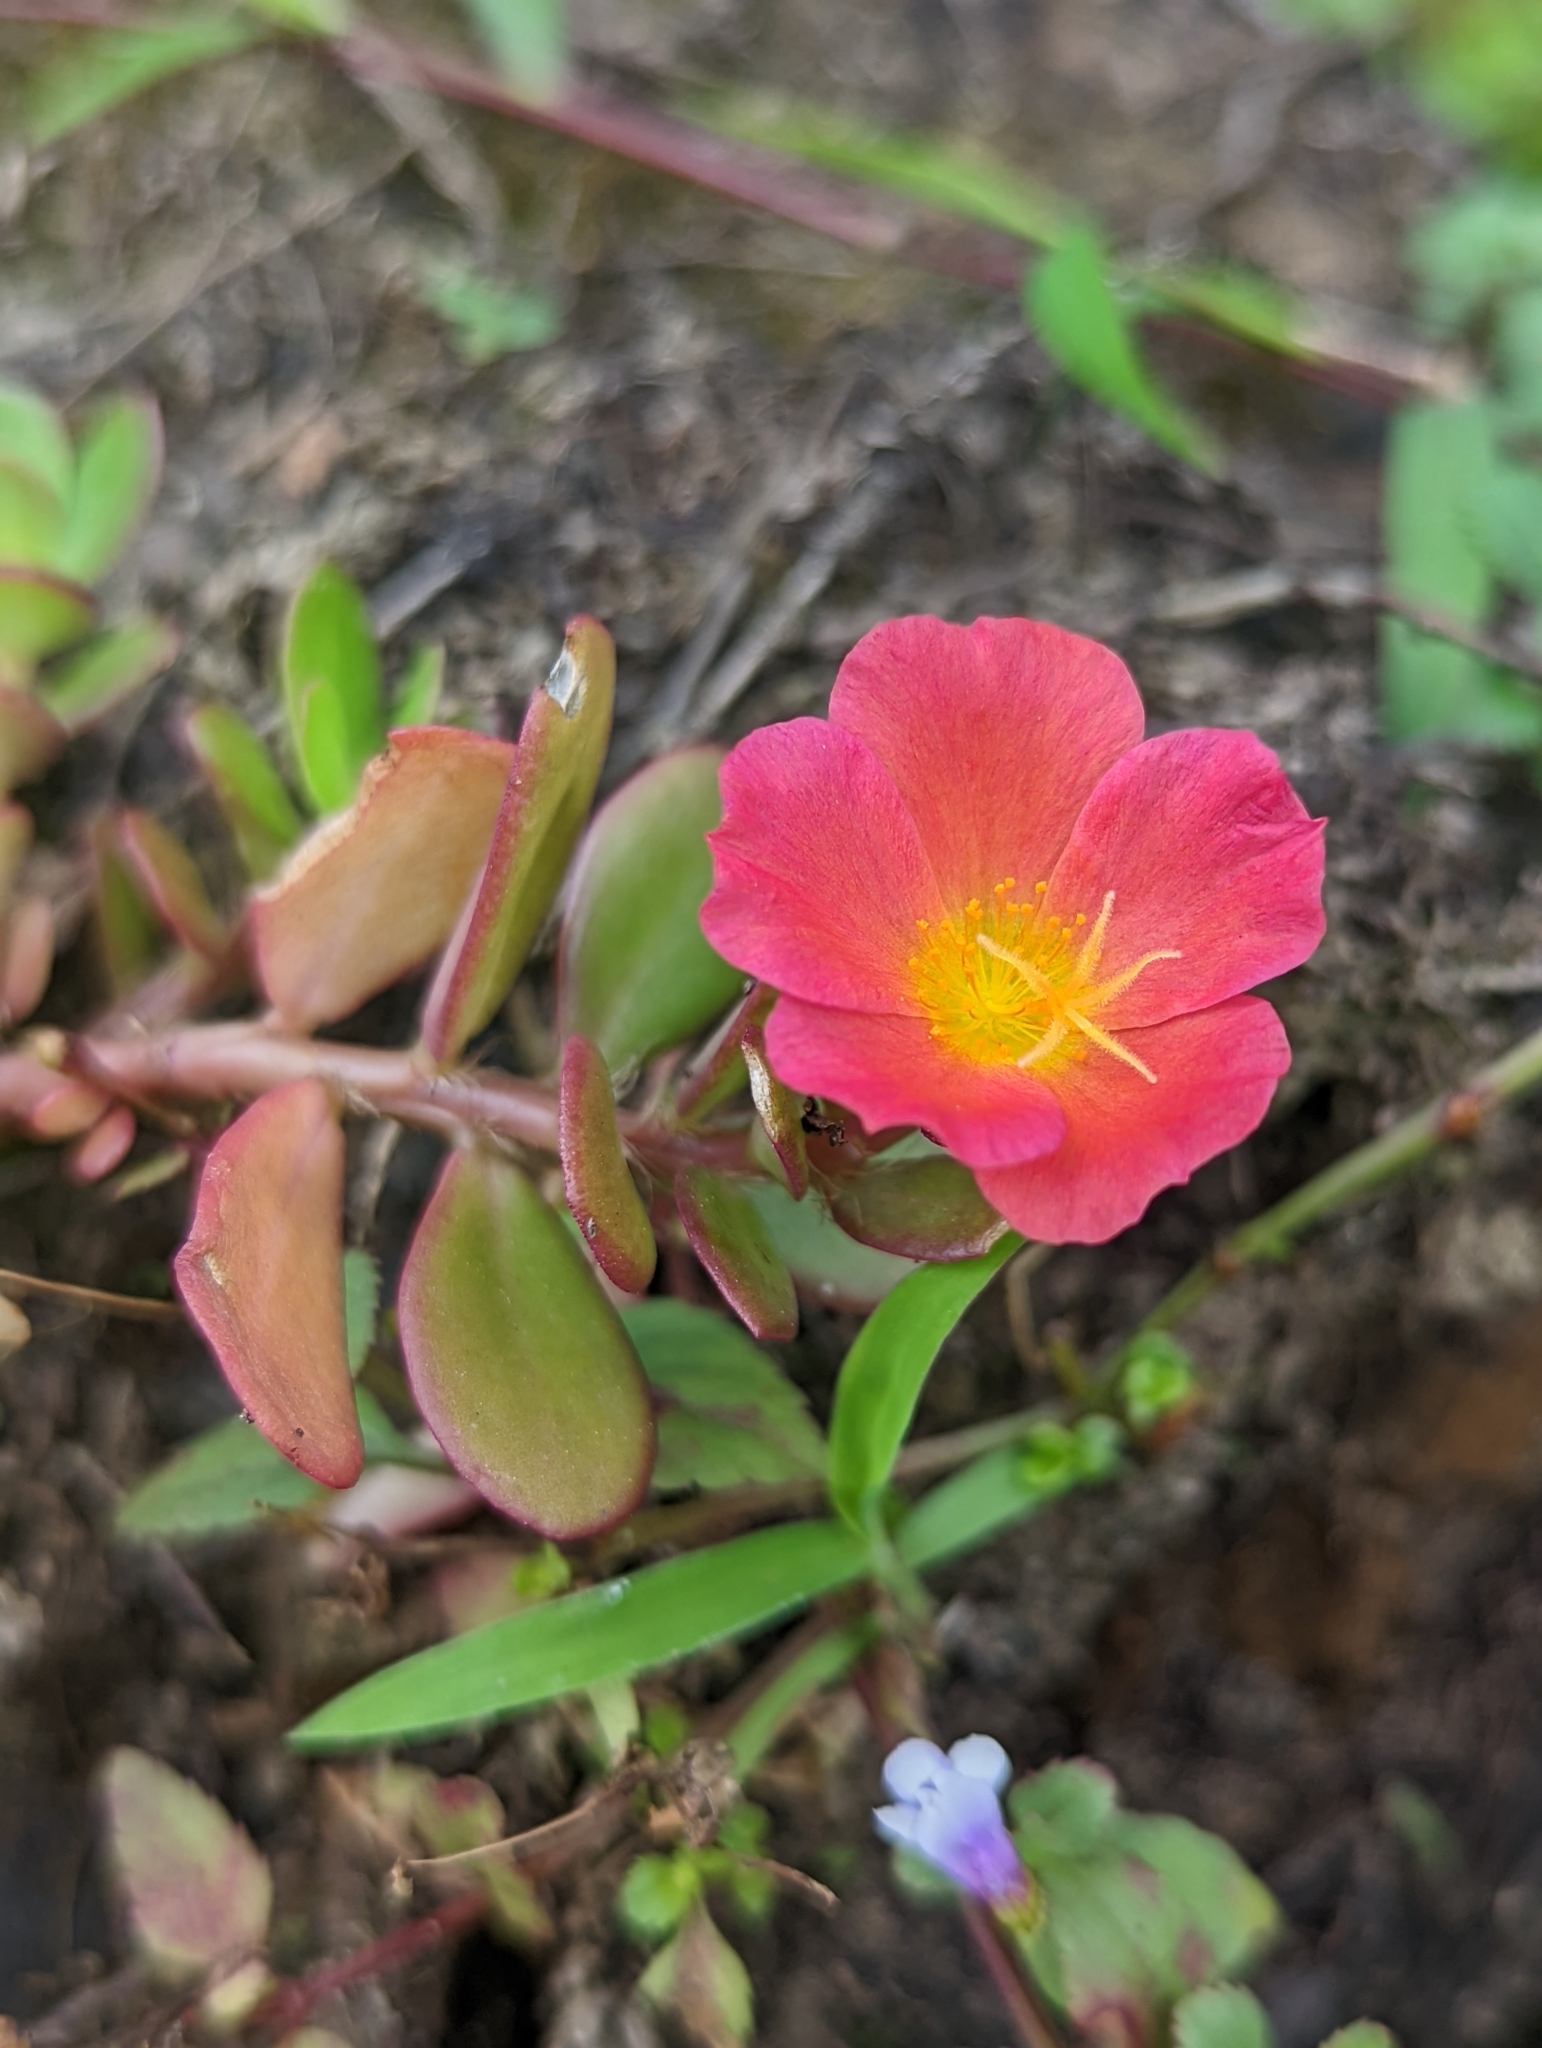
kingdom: Plantae
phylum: Tracheophyta
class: Magnoliopsida
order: Caryophyllales
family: Portulacaceae
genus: Portulaca
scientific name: Portulaca umbraticola
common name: Wingpod purslane
